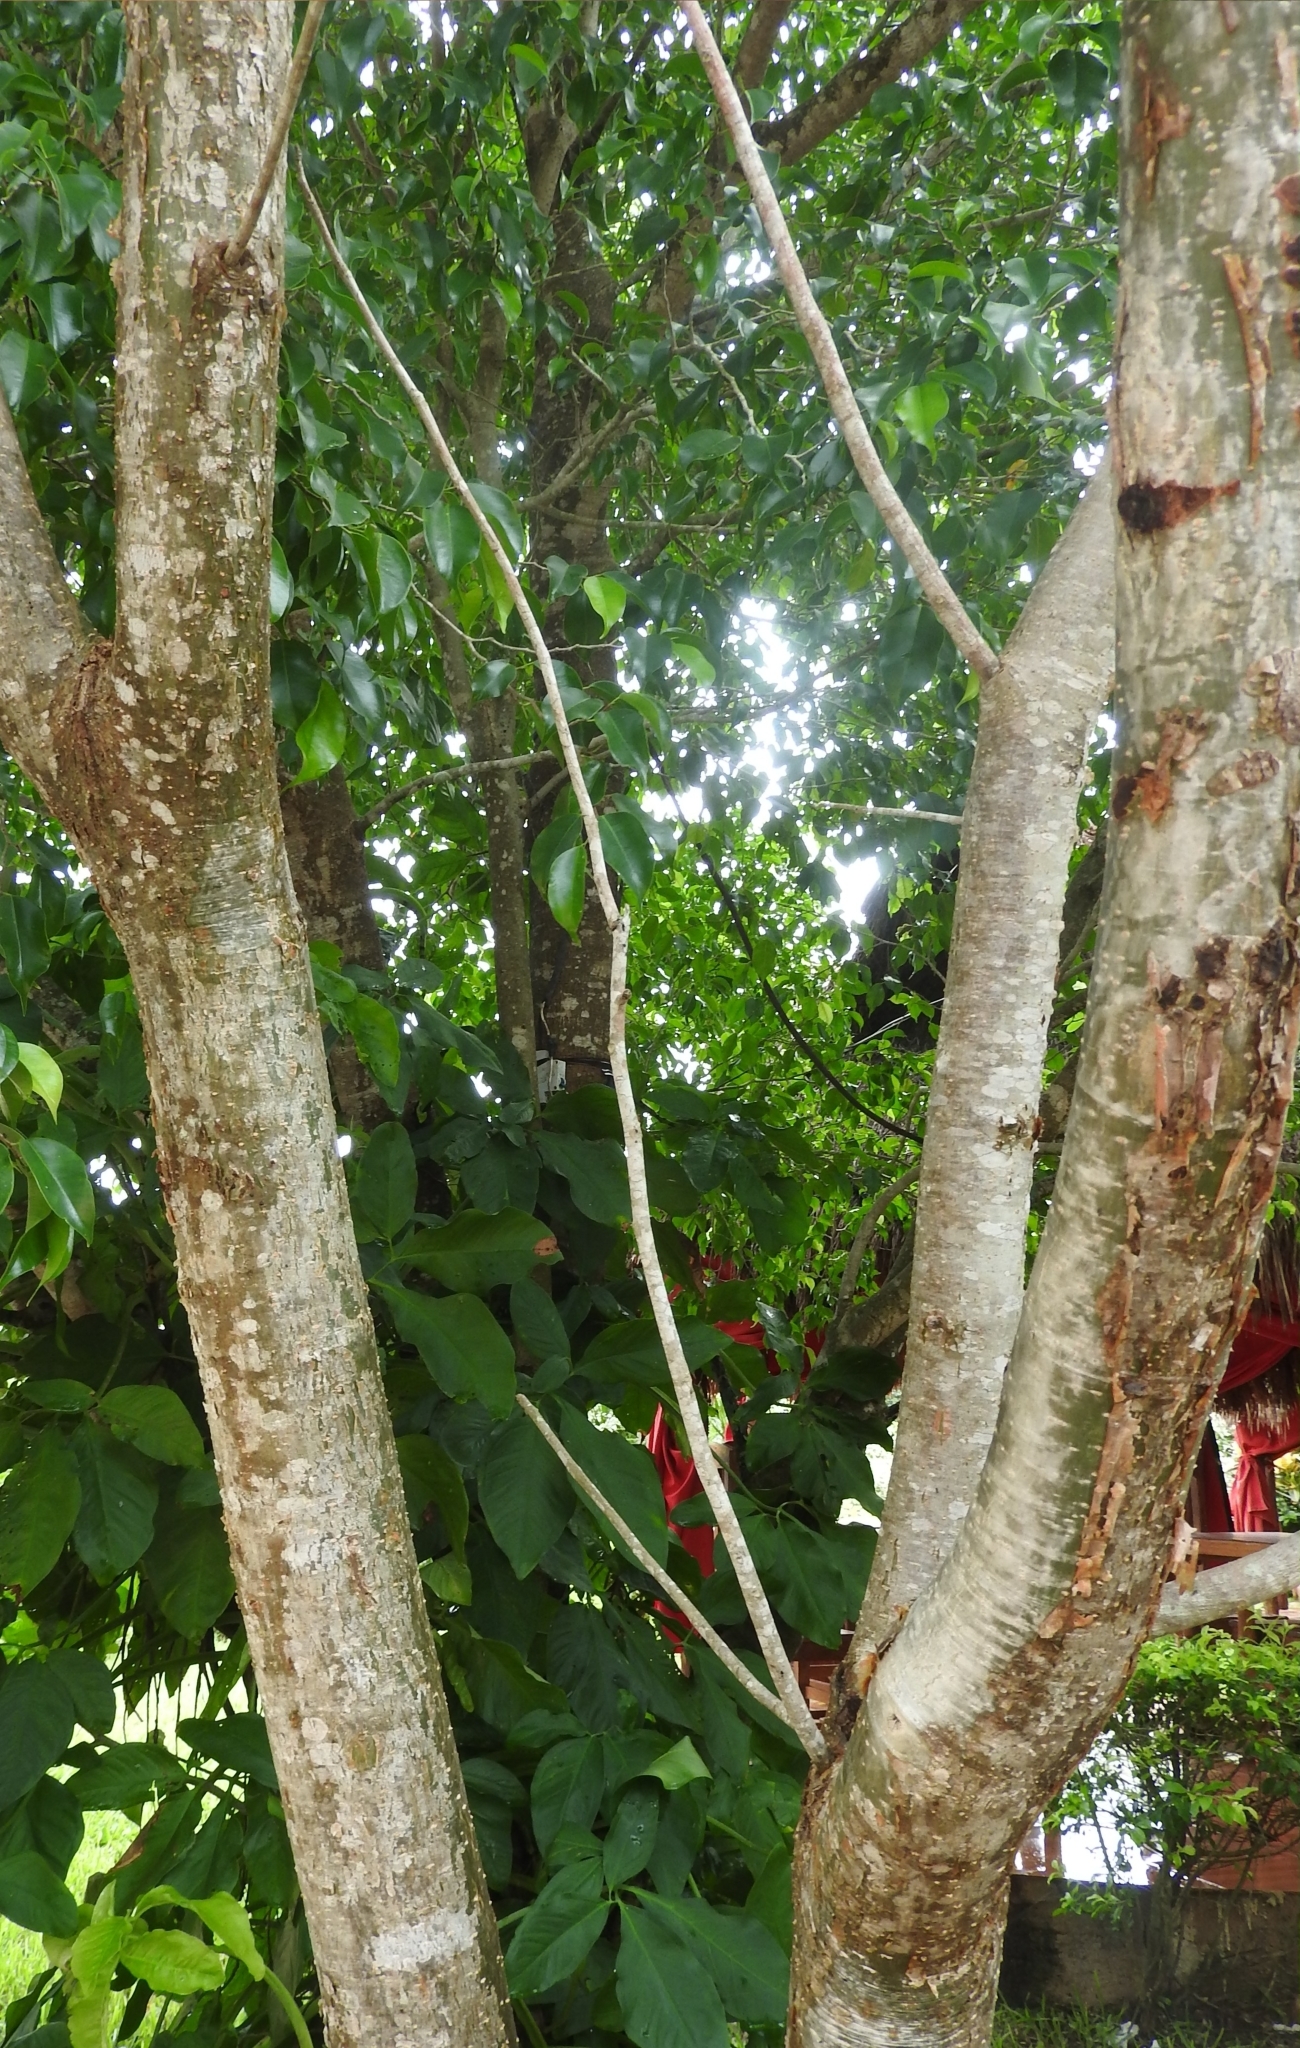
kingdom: Plantae
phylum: Tracheophyta
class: Magnoliopsida
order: Sapindales
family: Burseraceae
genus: Bursera
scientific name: Bursera simaruba
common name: Turpentine tree
